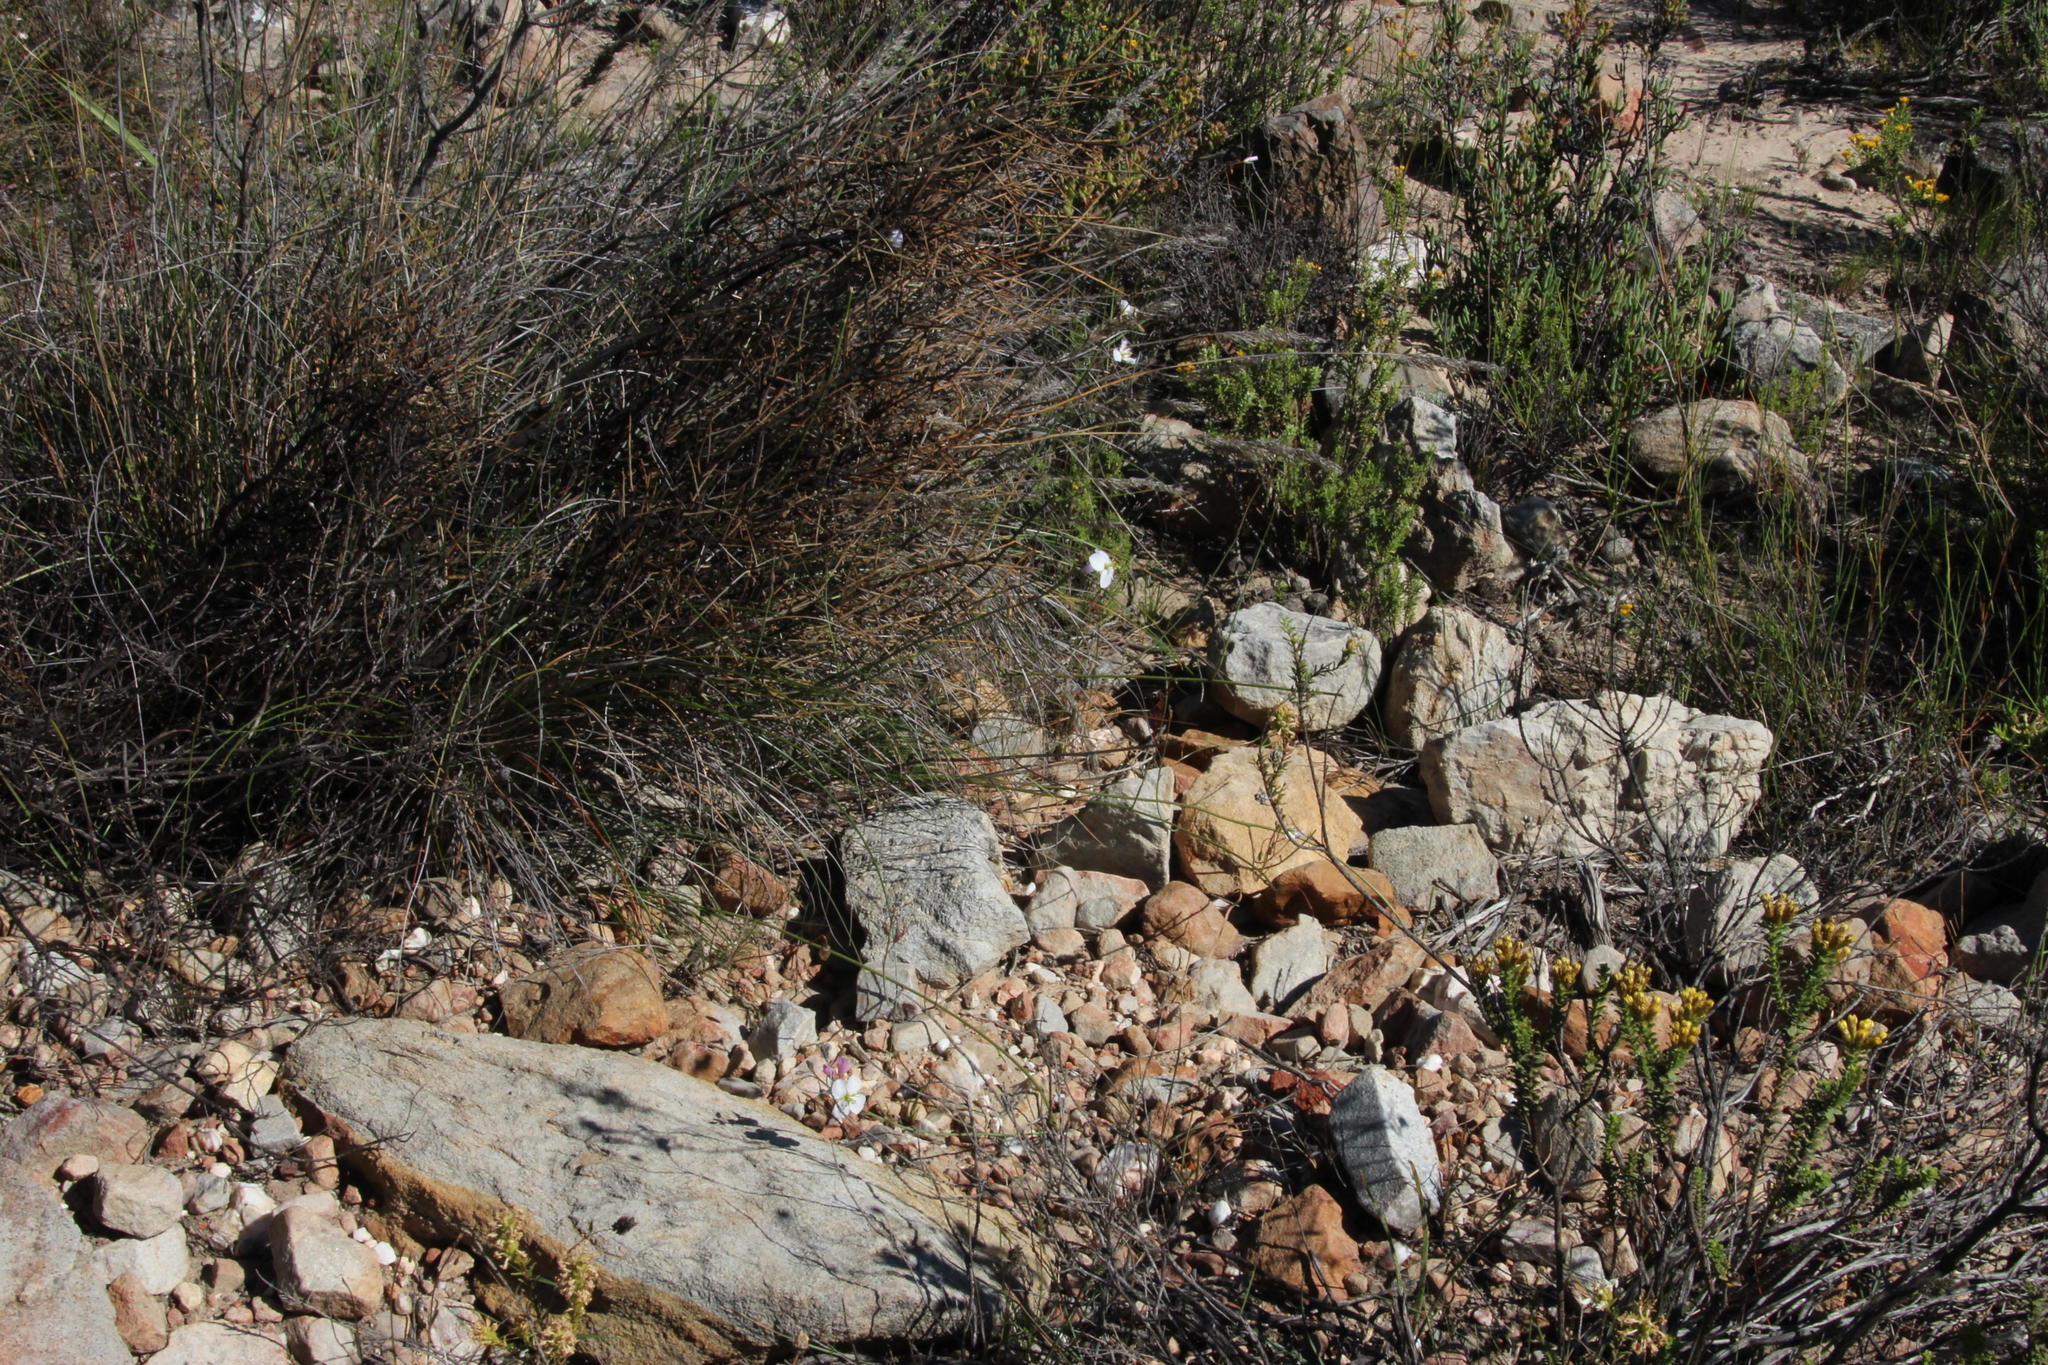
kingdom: Plantae
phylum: Tracheophyta
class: Magnoliopsida
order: Brassicales
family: Brassicaceae
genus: Heliophila
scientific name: Heliophila carnosa
